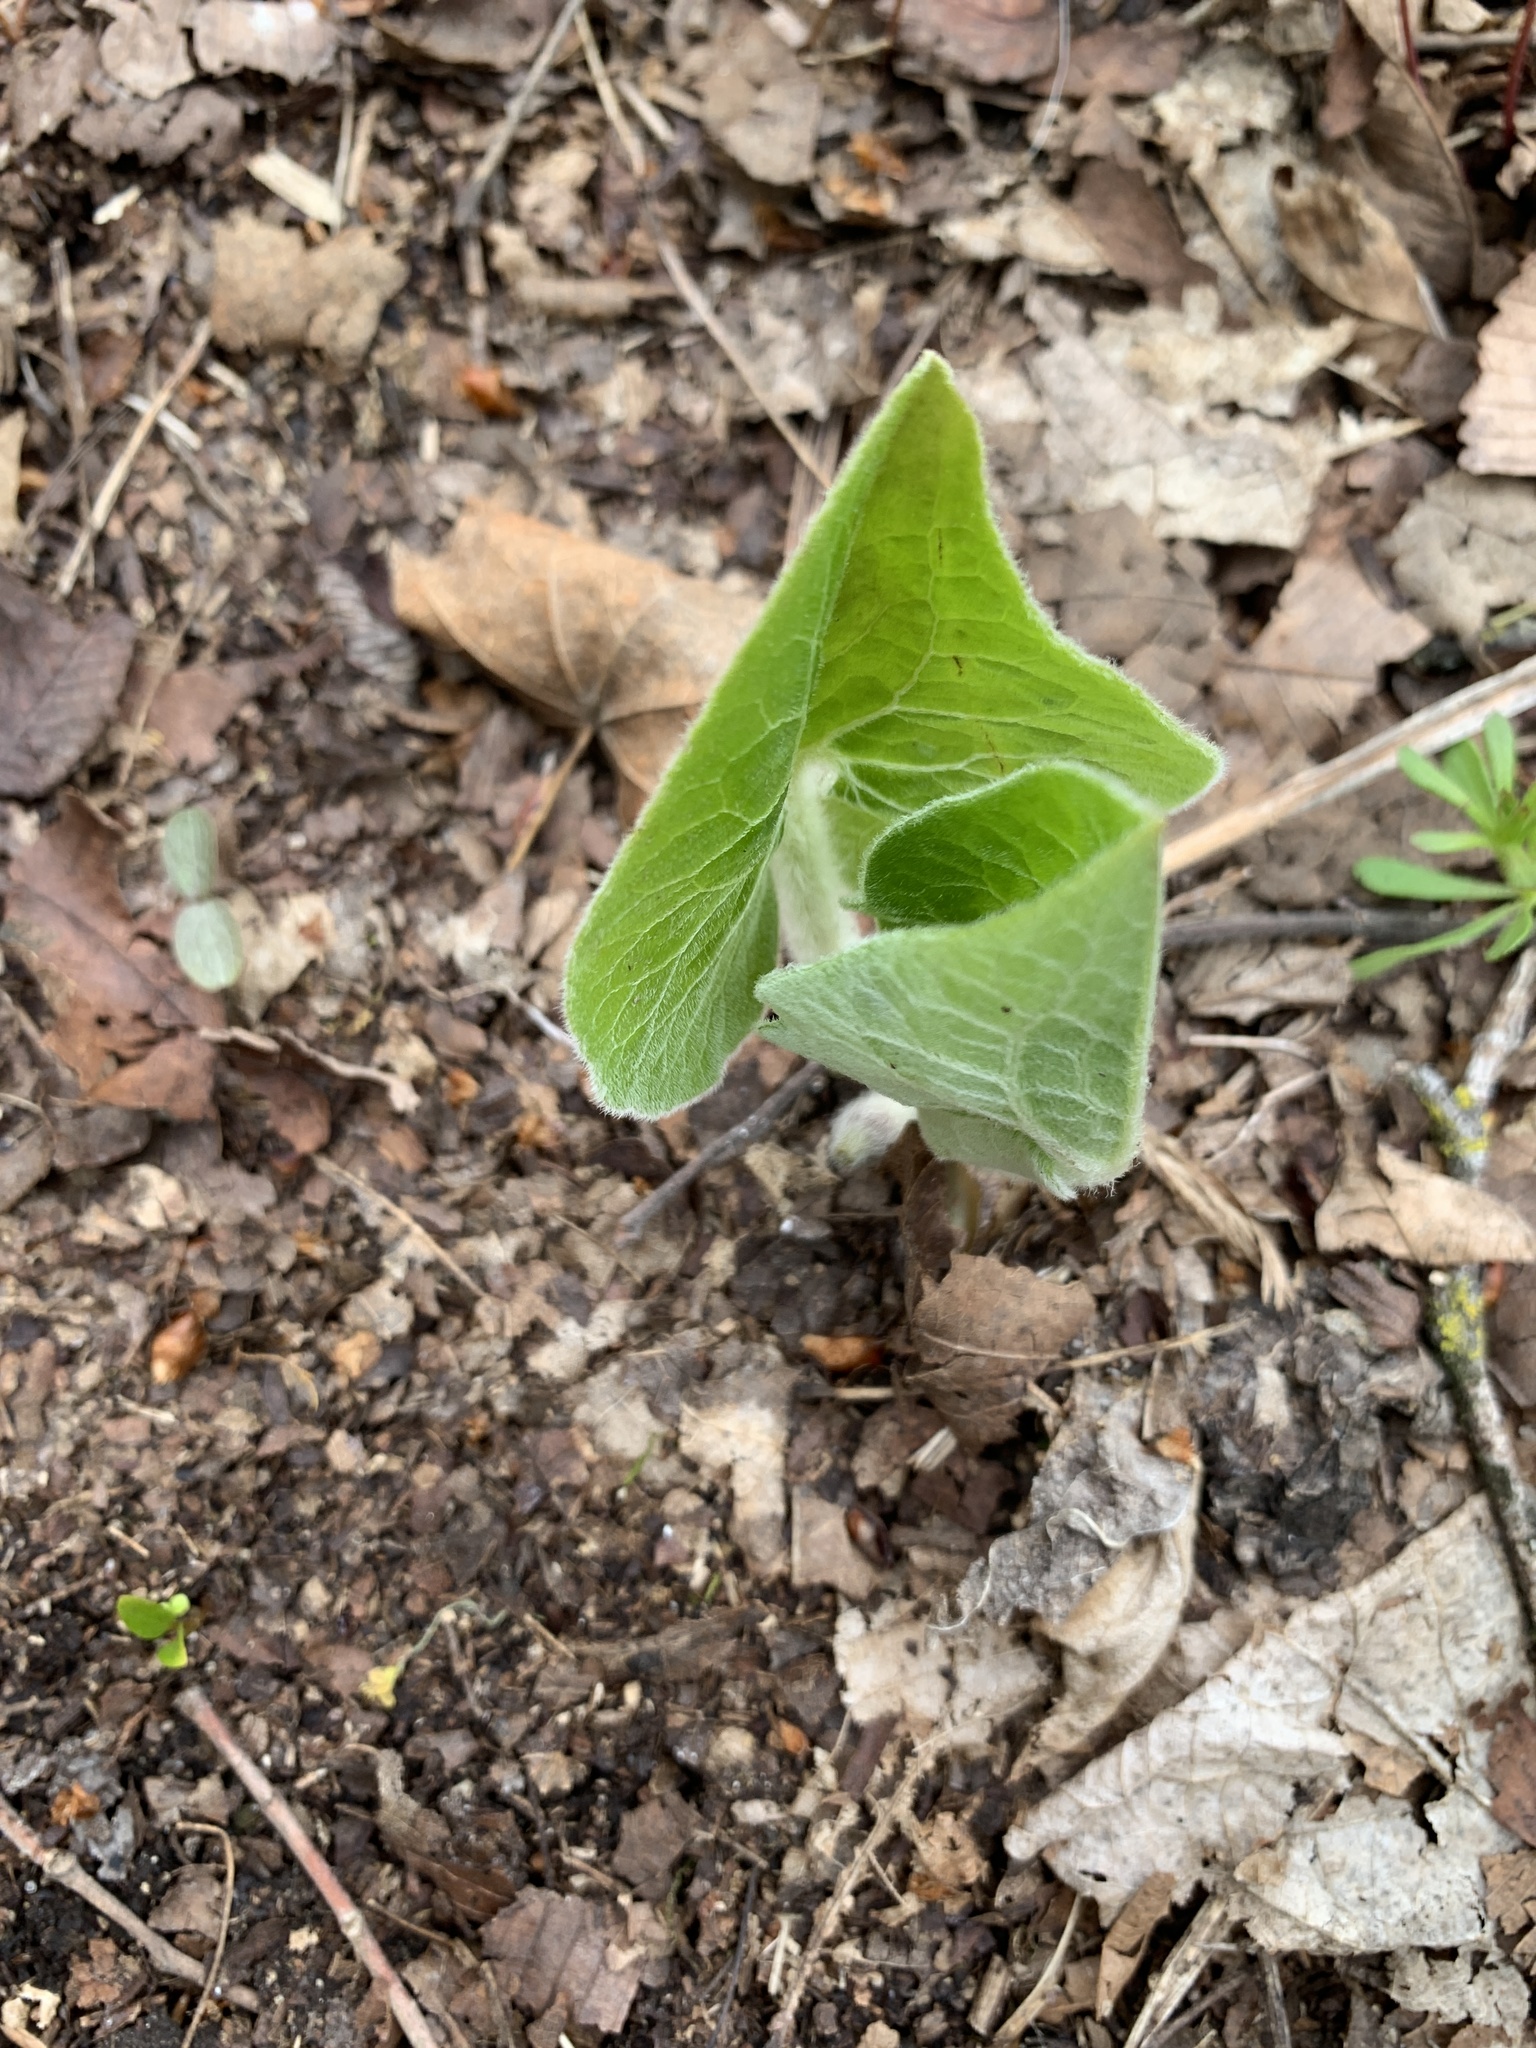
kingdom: Plantae
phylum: Tracheophyta
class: Magnoliopsida
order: Piperales
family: Aristolochiaceae
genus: Asarum
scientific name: Asarum canadense
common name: Wild ginger
